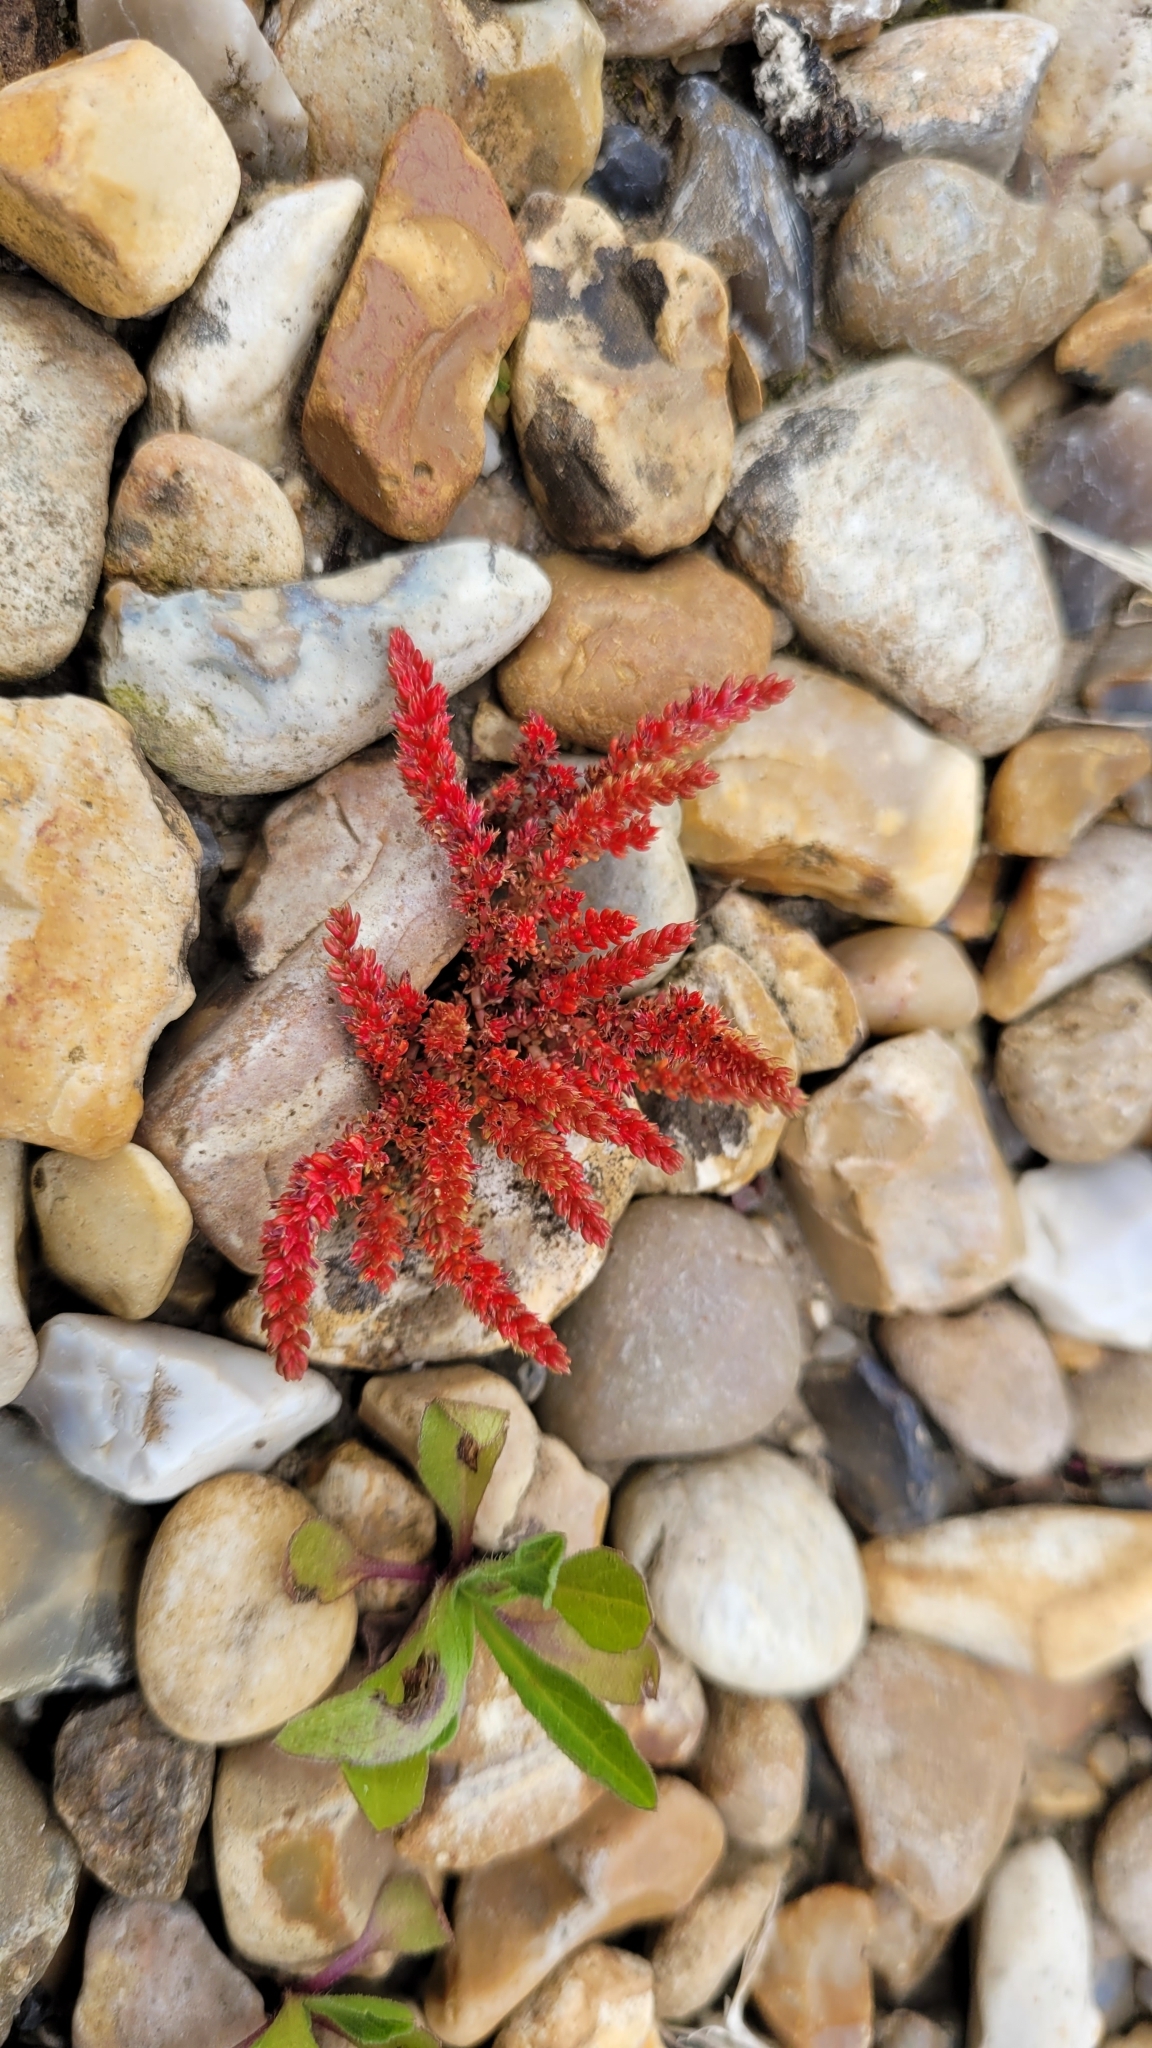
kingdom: Plantae
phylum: Tracheophyta
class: Magnoliopsida
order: Saxifragales
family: Crassulaceae
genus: Crassula
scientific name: Crassula tillaea
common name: Mossy stonecrop
